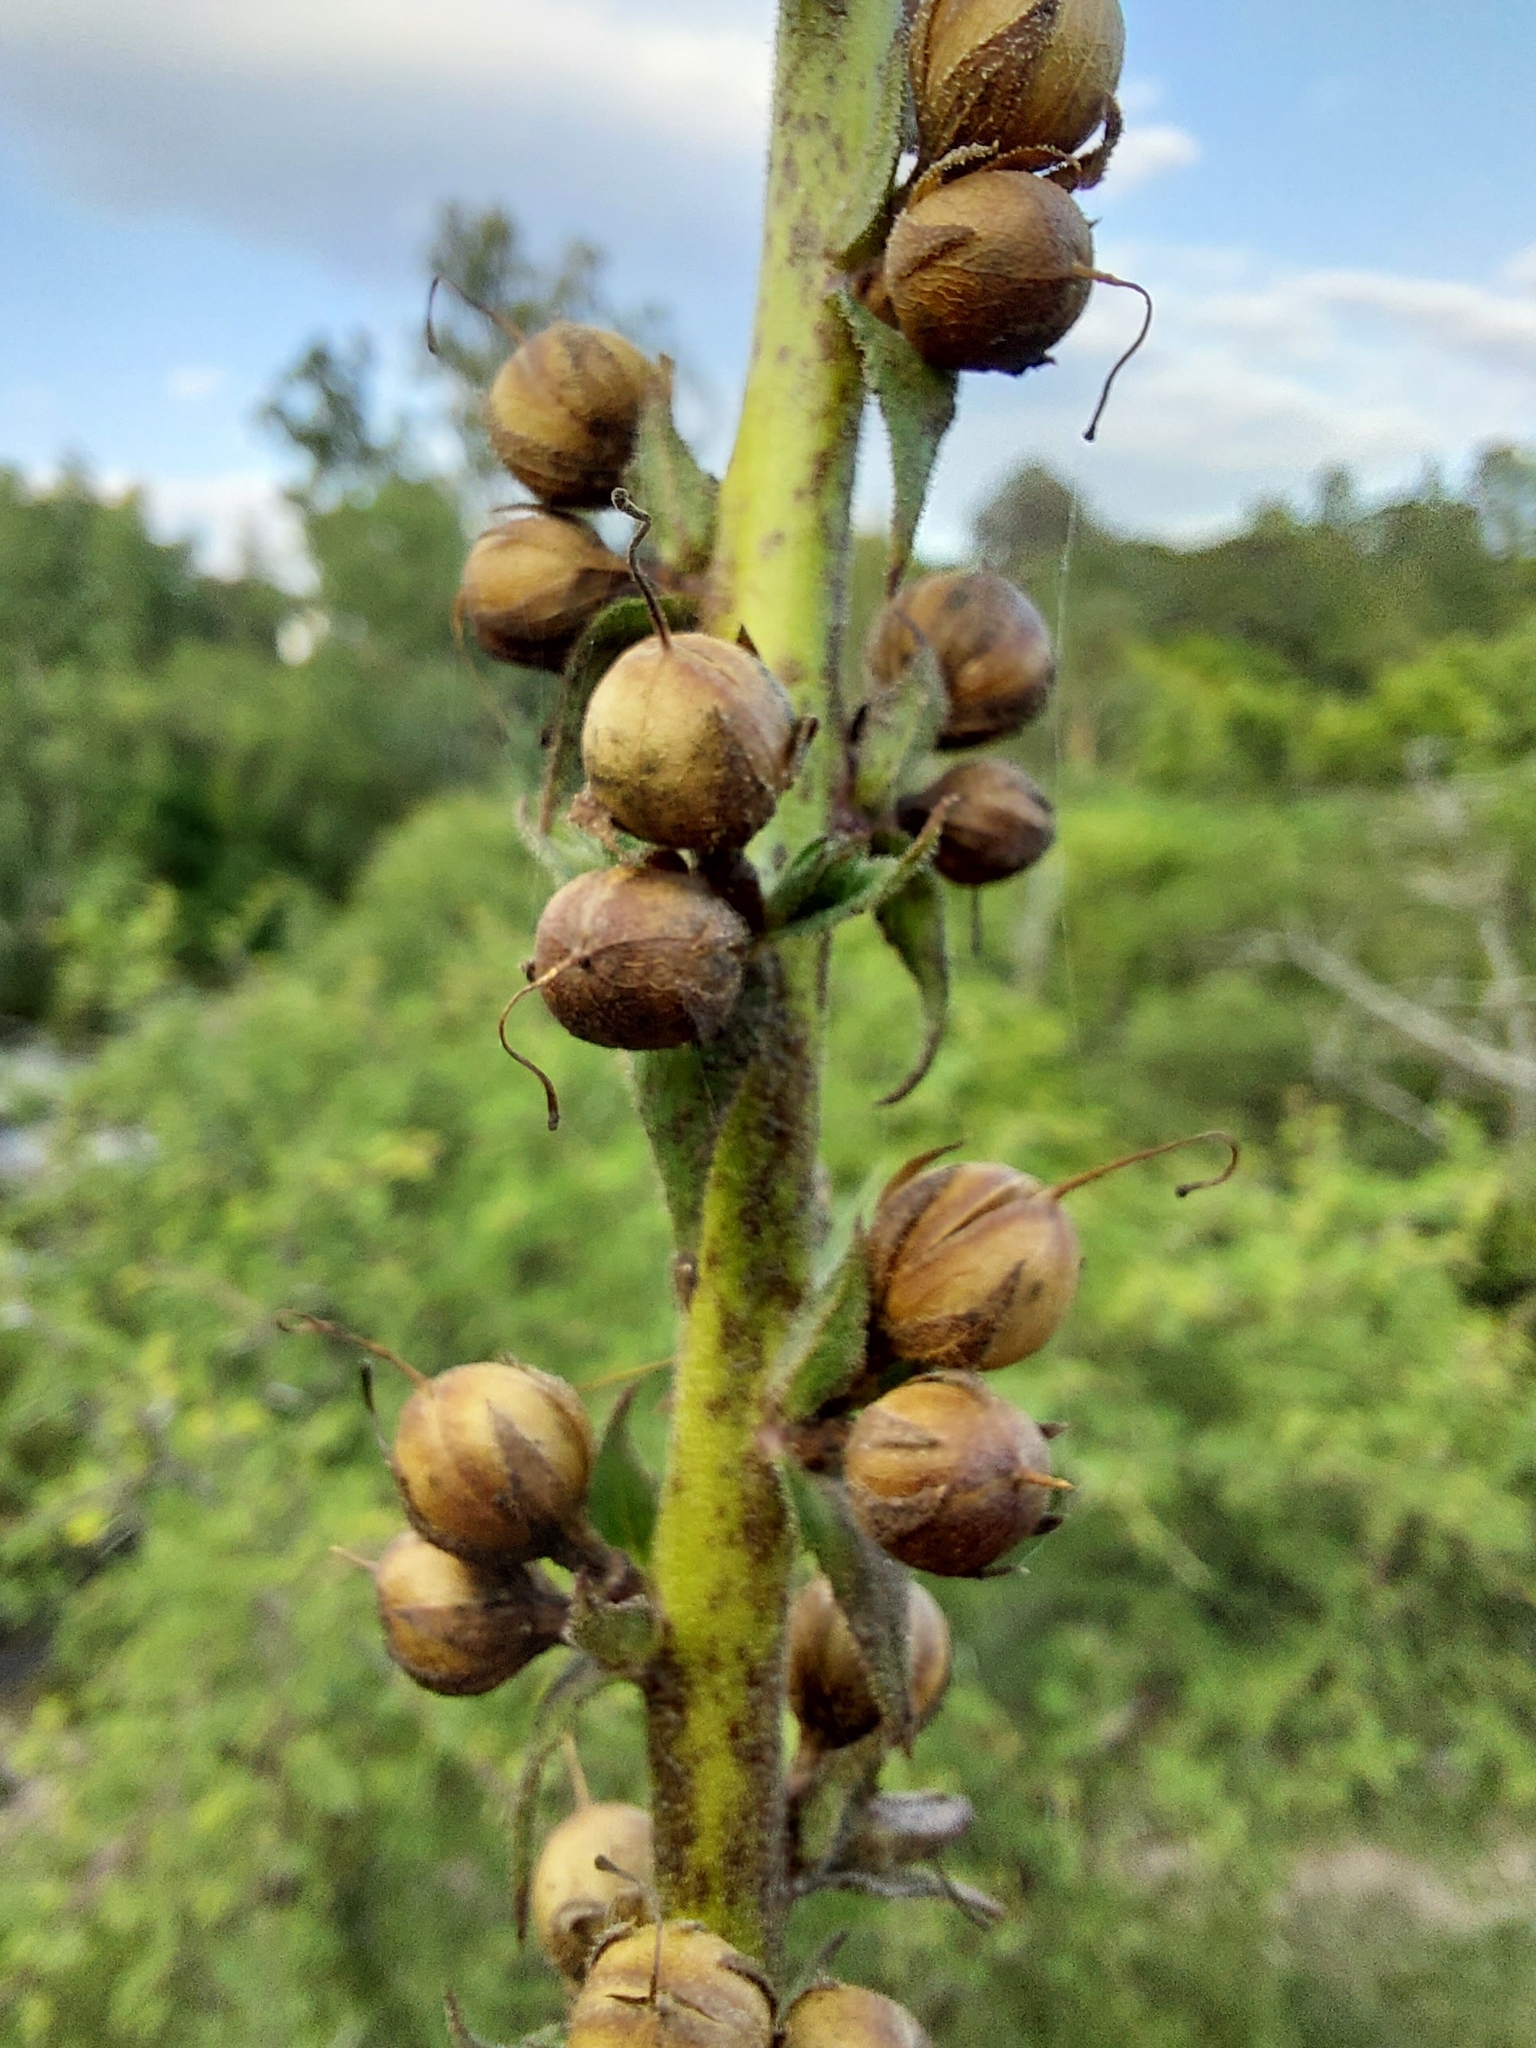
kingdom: Plantae
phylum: Tracheophyta
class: Magnoliopsida
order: Lamiales
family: Scrophulariaceae
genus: Verbascum
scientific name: Verbascum virgatum
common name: Twiggy mullein
